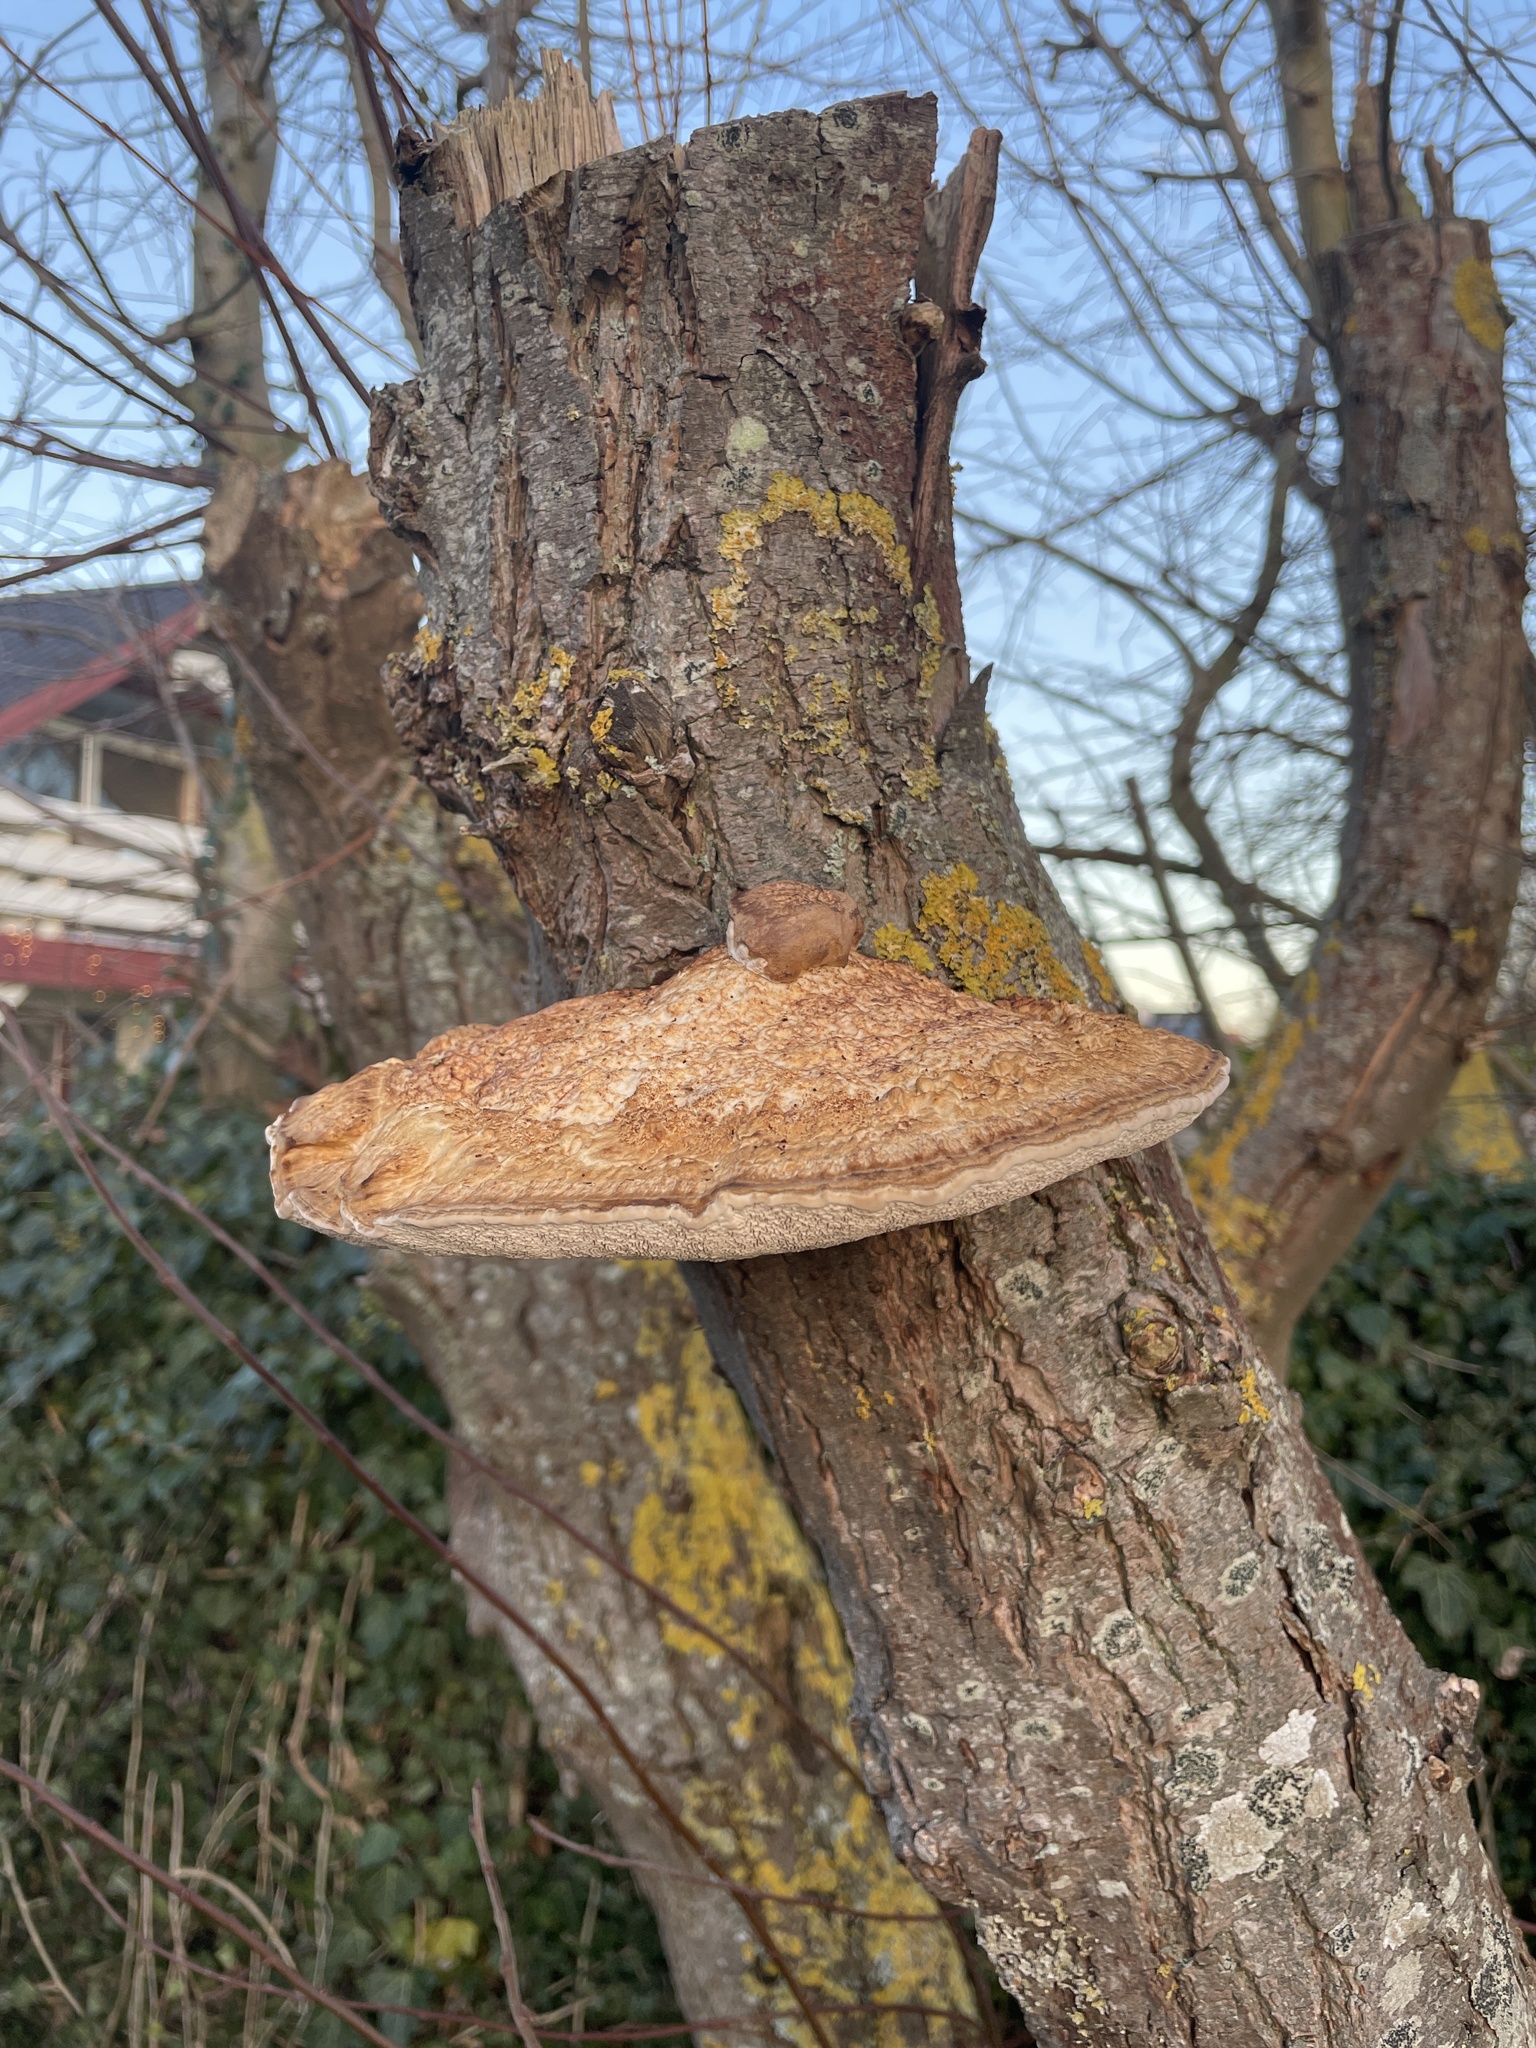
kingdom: Fungi
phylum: Basidiomycota
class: Agaricomycetes
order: Polyporales
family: Polyporaceae
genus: Daedaleopsis
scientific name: Daedaleopsis confragosa
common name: Blushing bracket
